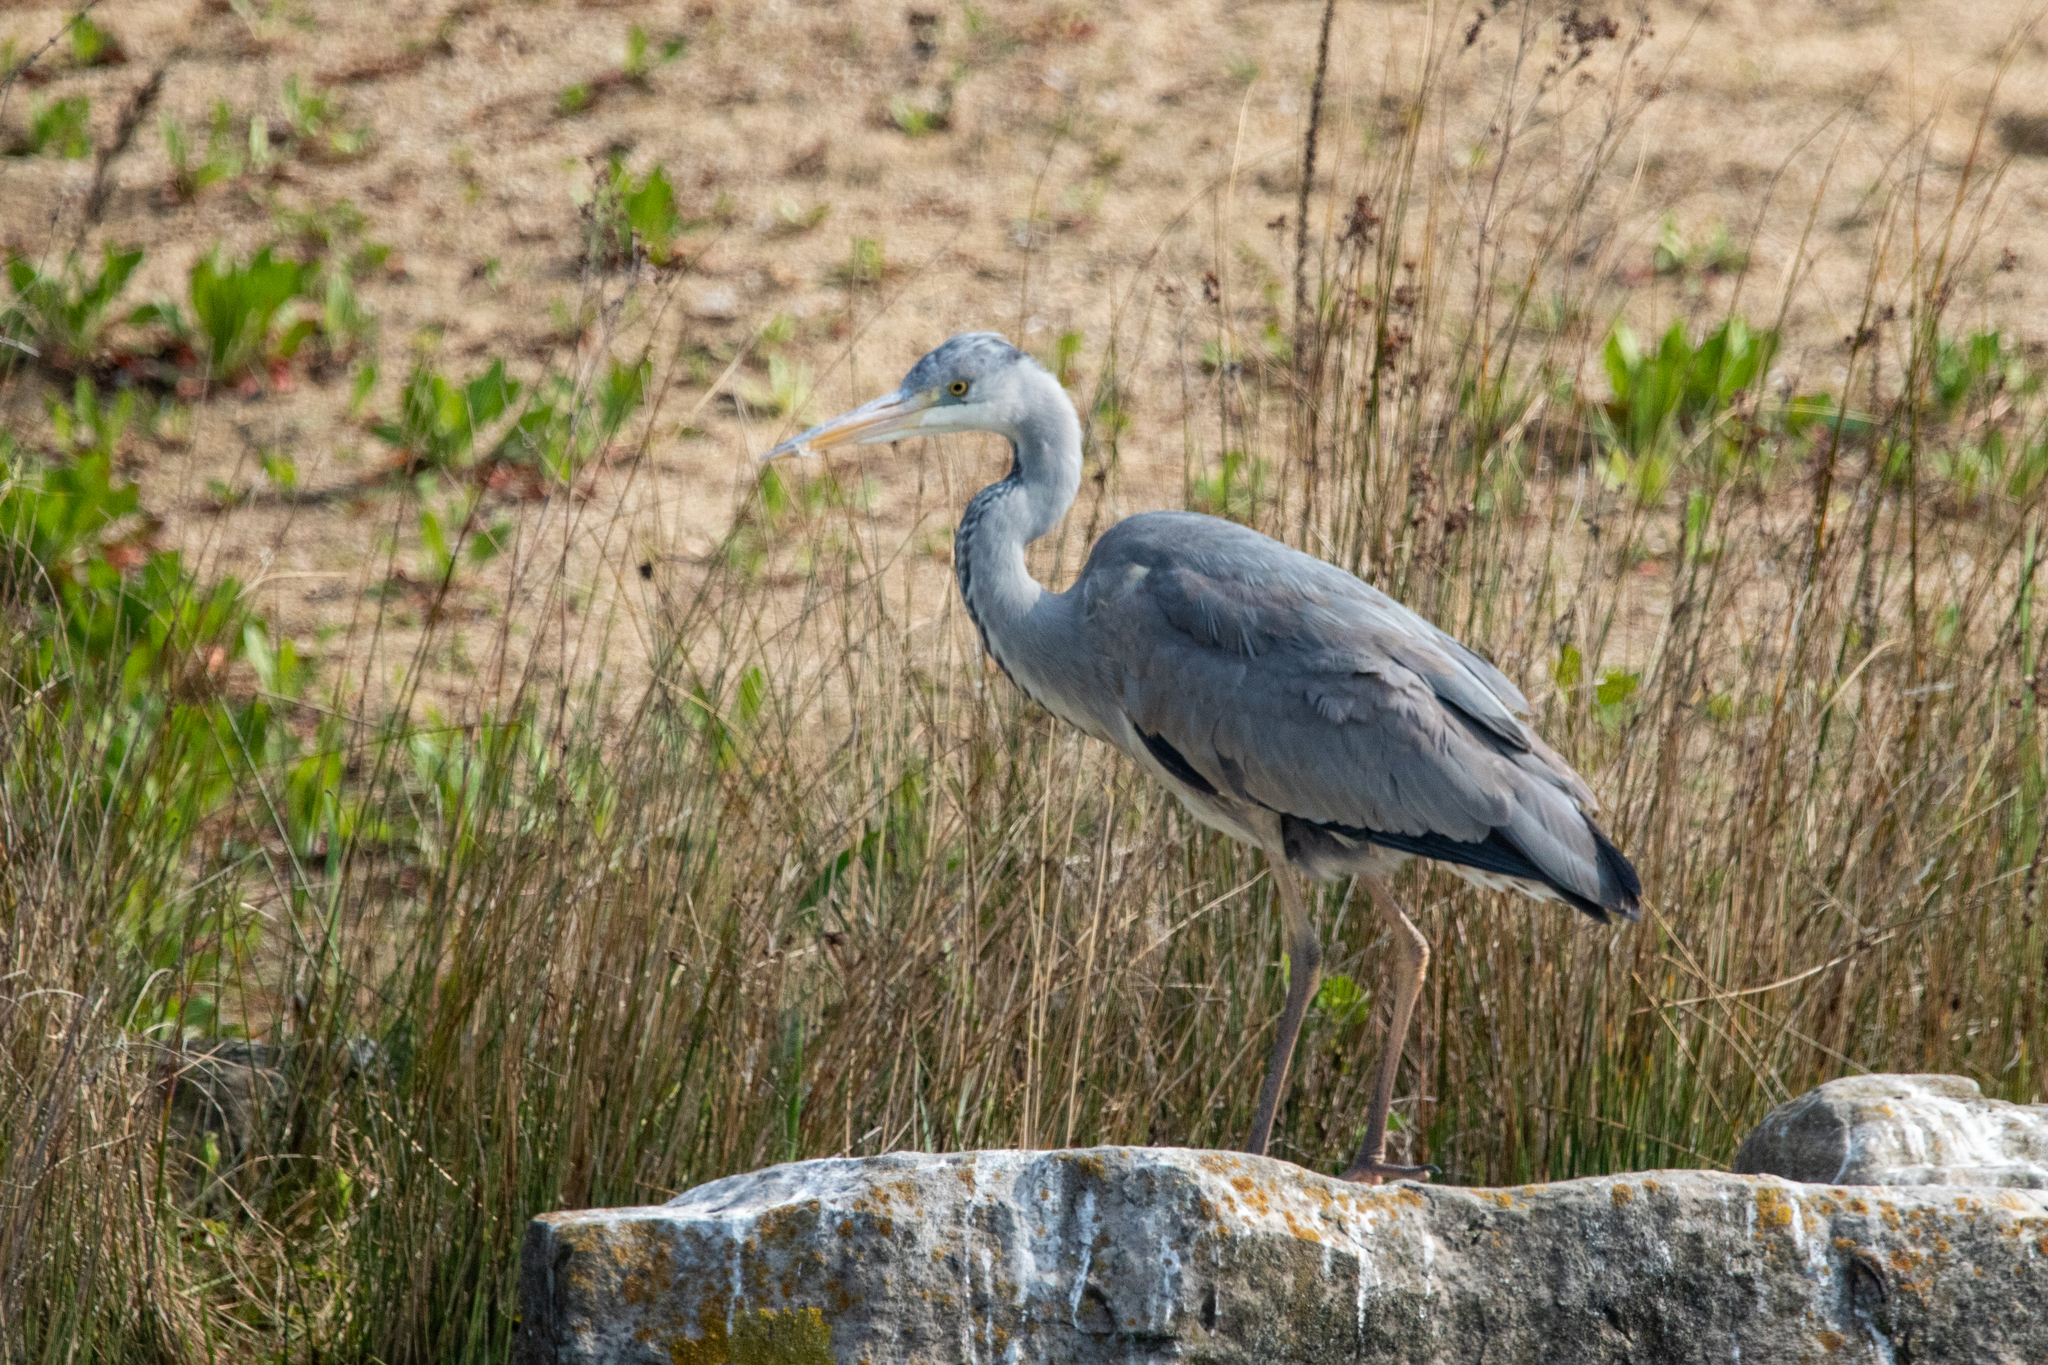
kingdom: Animalia
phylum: Chordata
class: Aves
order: Pelecaniformes
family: Ardeidae
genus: Ardea
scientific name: Ardea cinerea
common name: Grey heron
